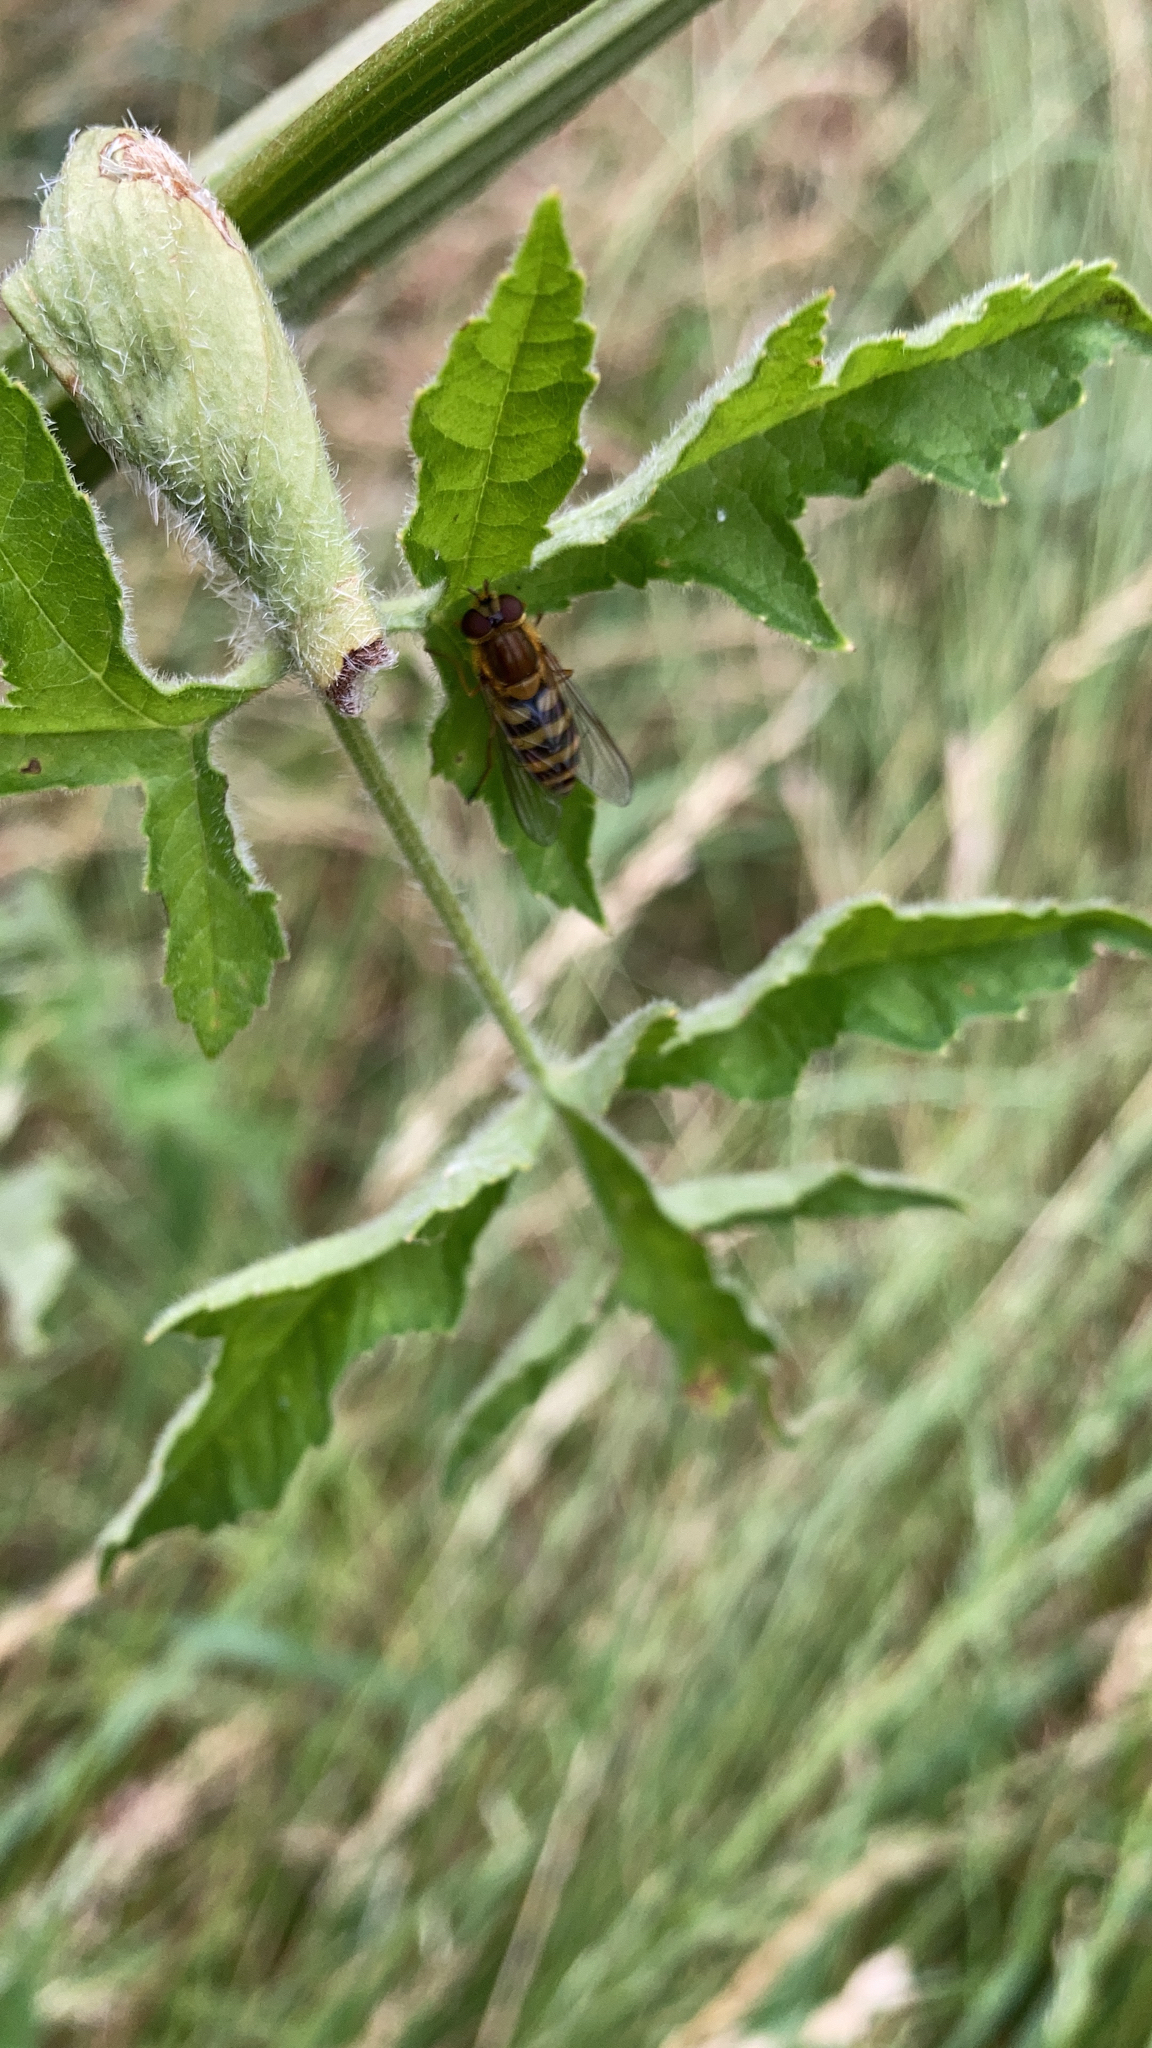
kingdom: Animalia
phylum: Arthropoda
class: Insecta
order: Diptera
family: Syrphidae
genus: Syrphus
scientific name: Syrphus
